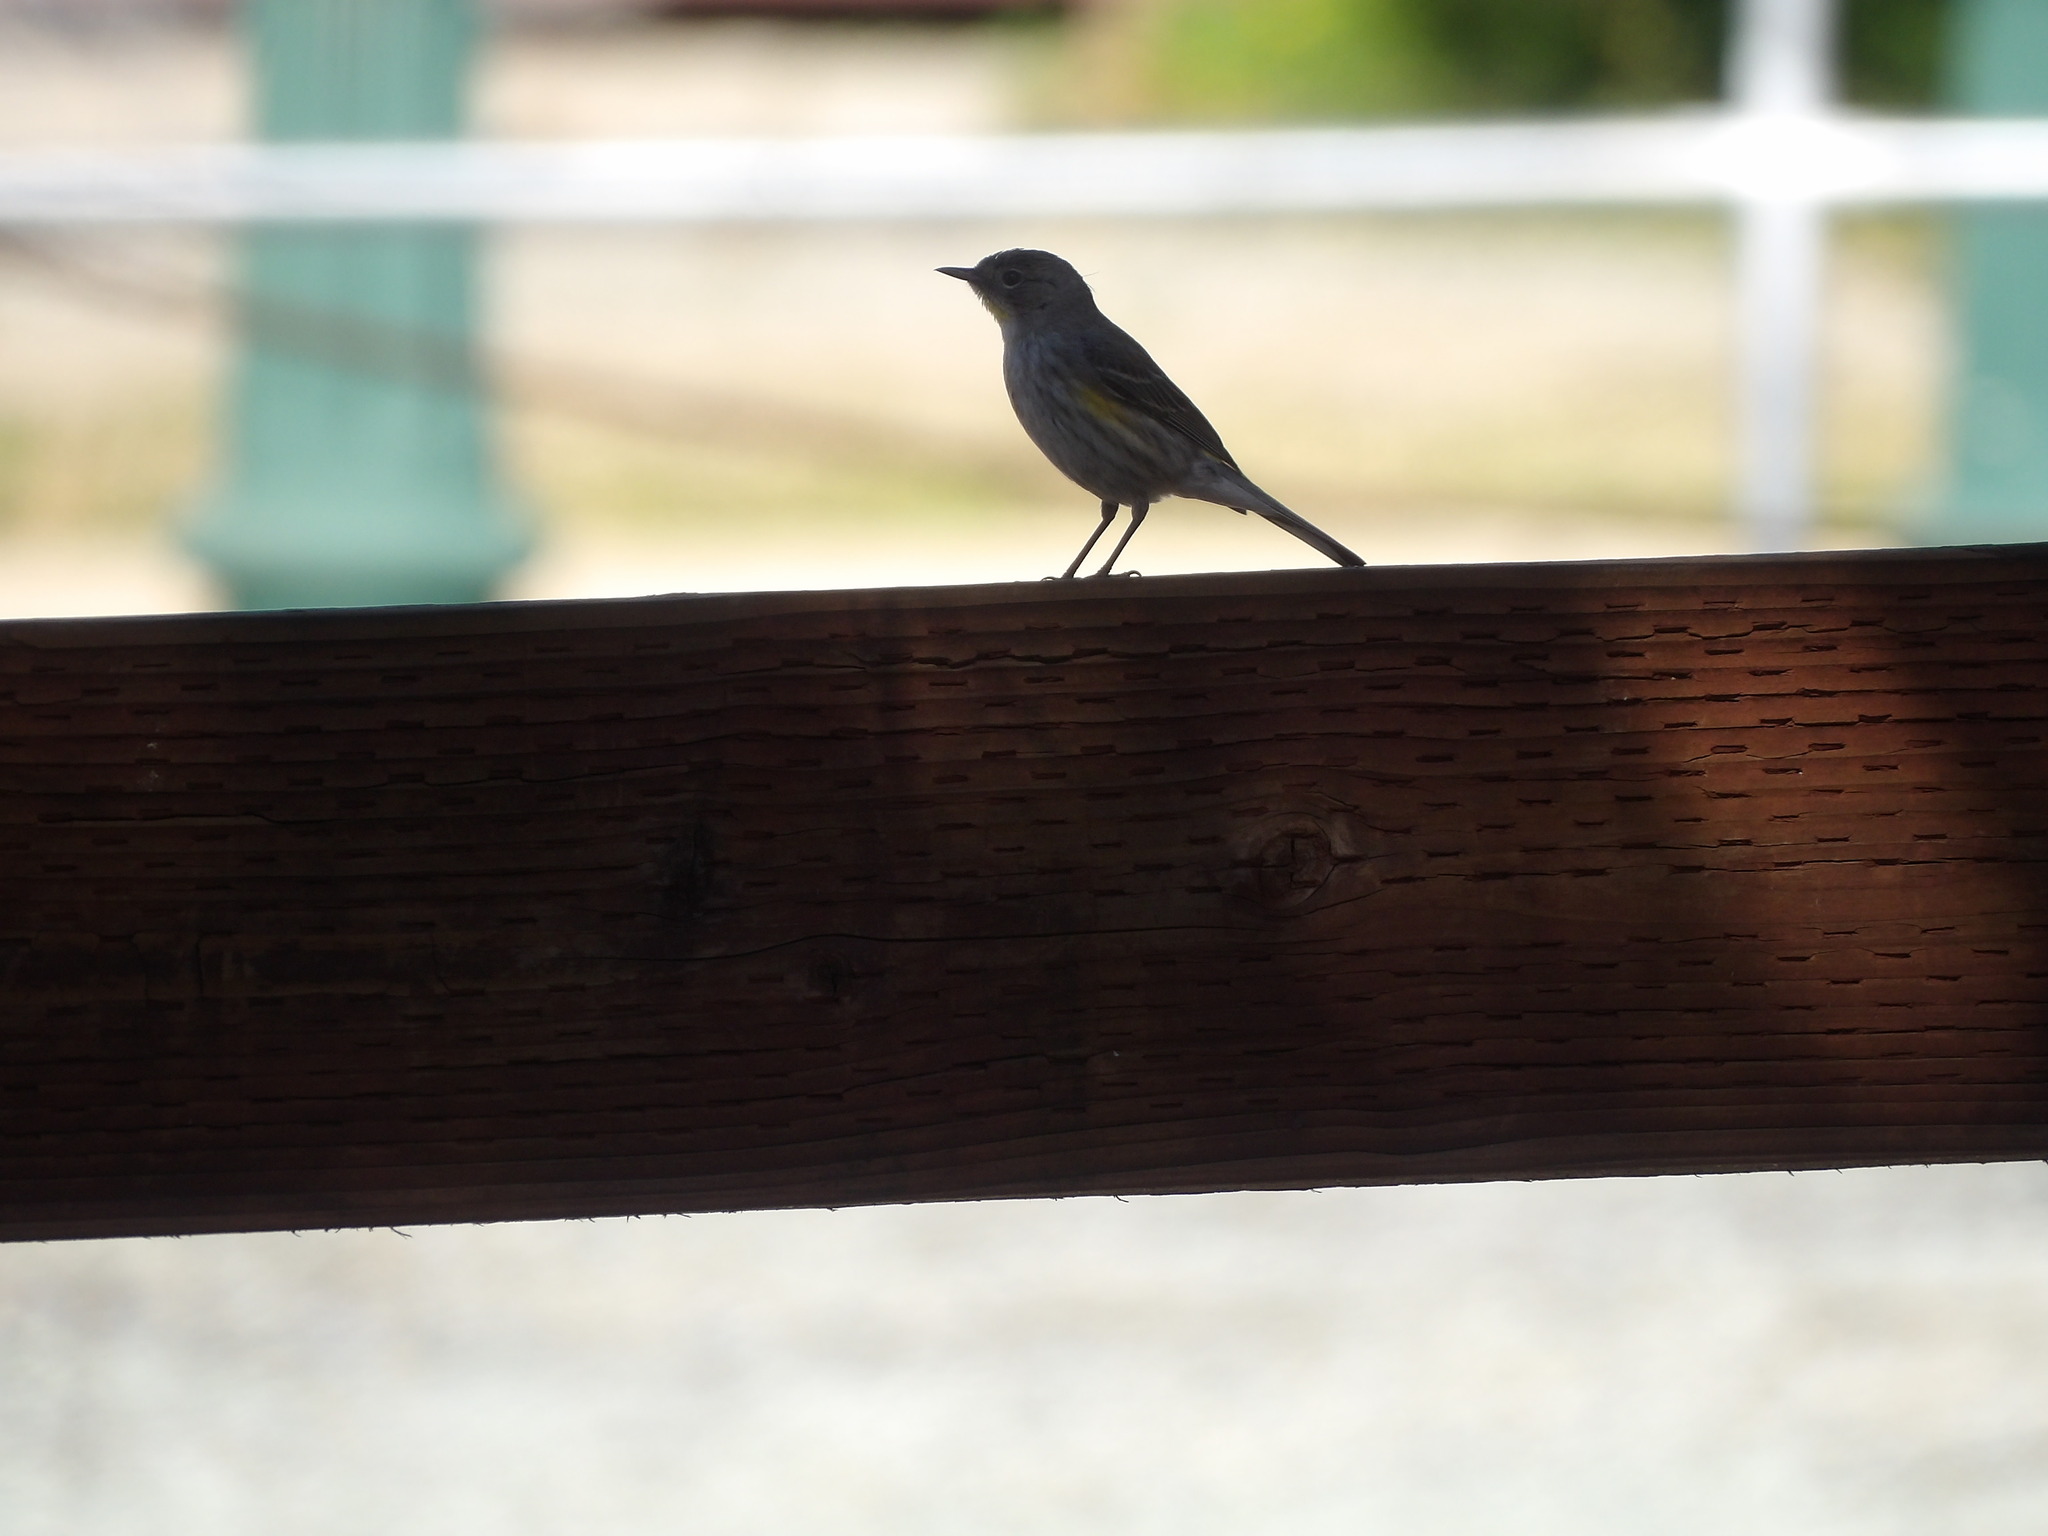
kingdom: Animalia
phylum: Chordata
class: Aves
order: Passeriformes
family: Parulidae
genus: Setophaga
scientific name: Setophaga coronata
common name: Myrtle warbler
